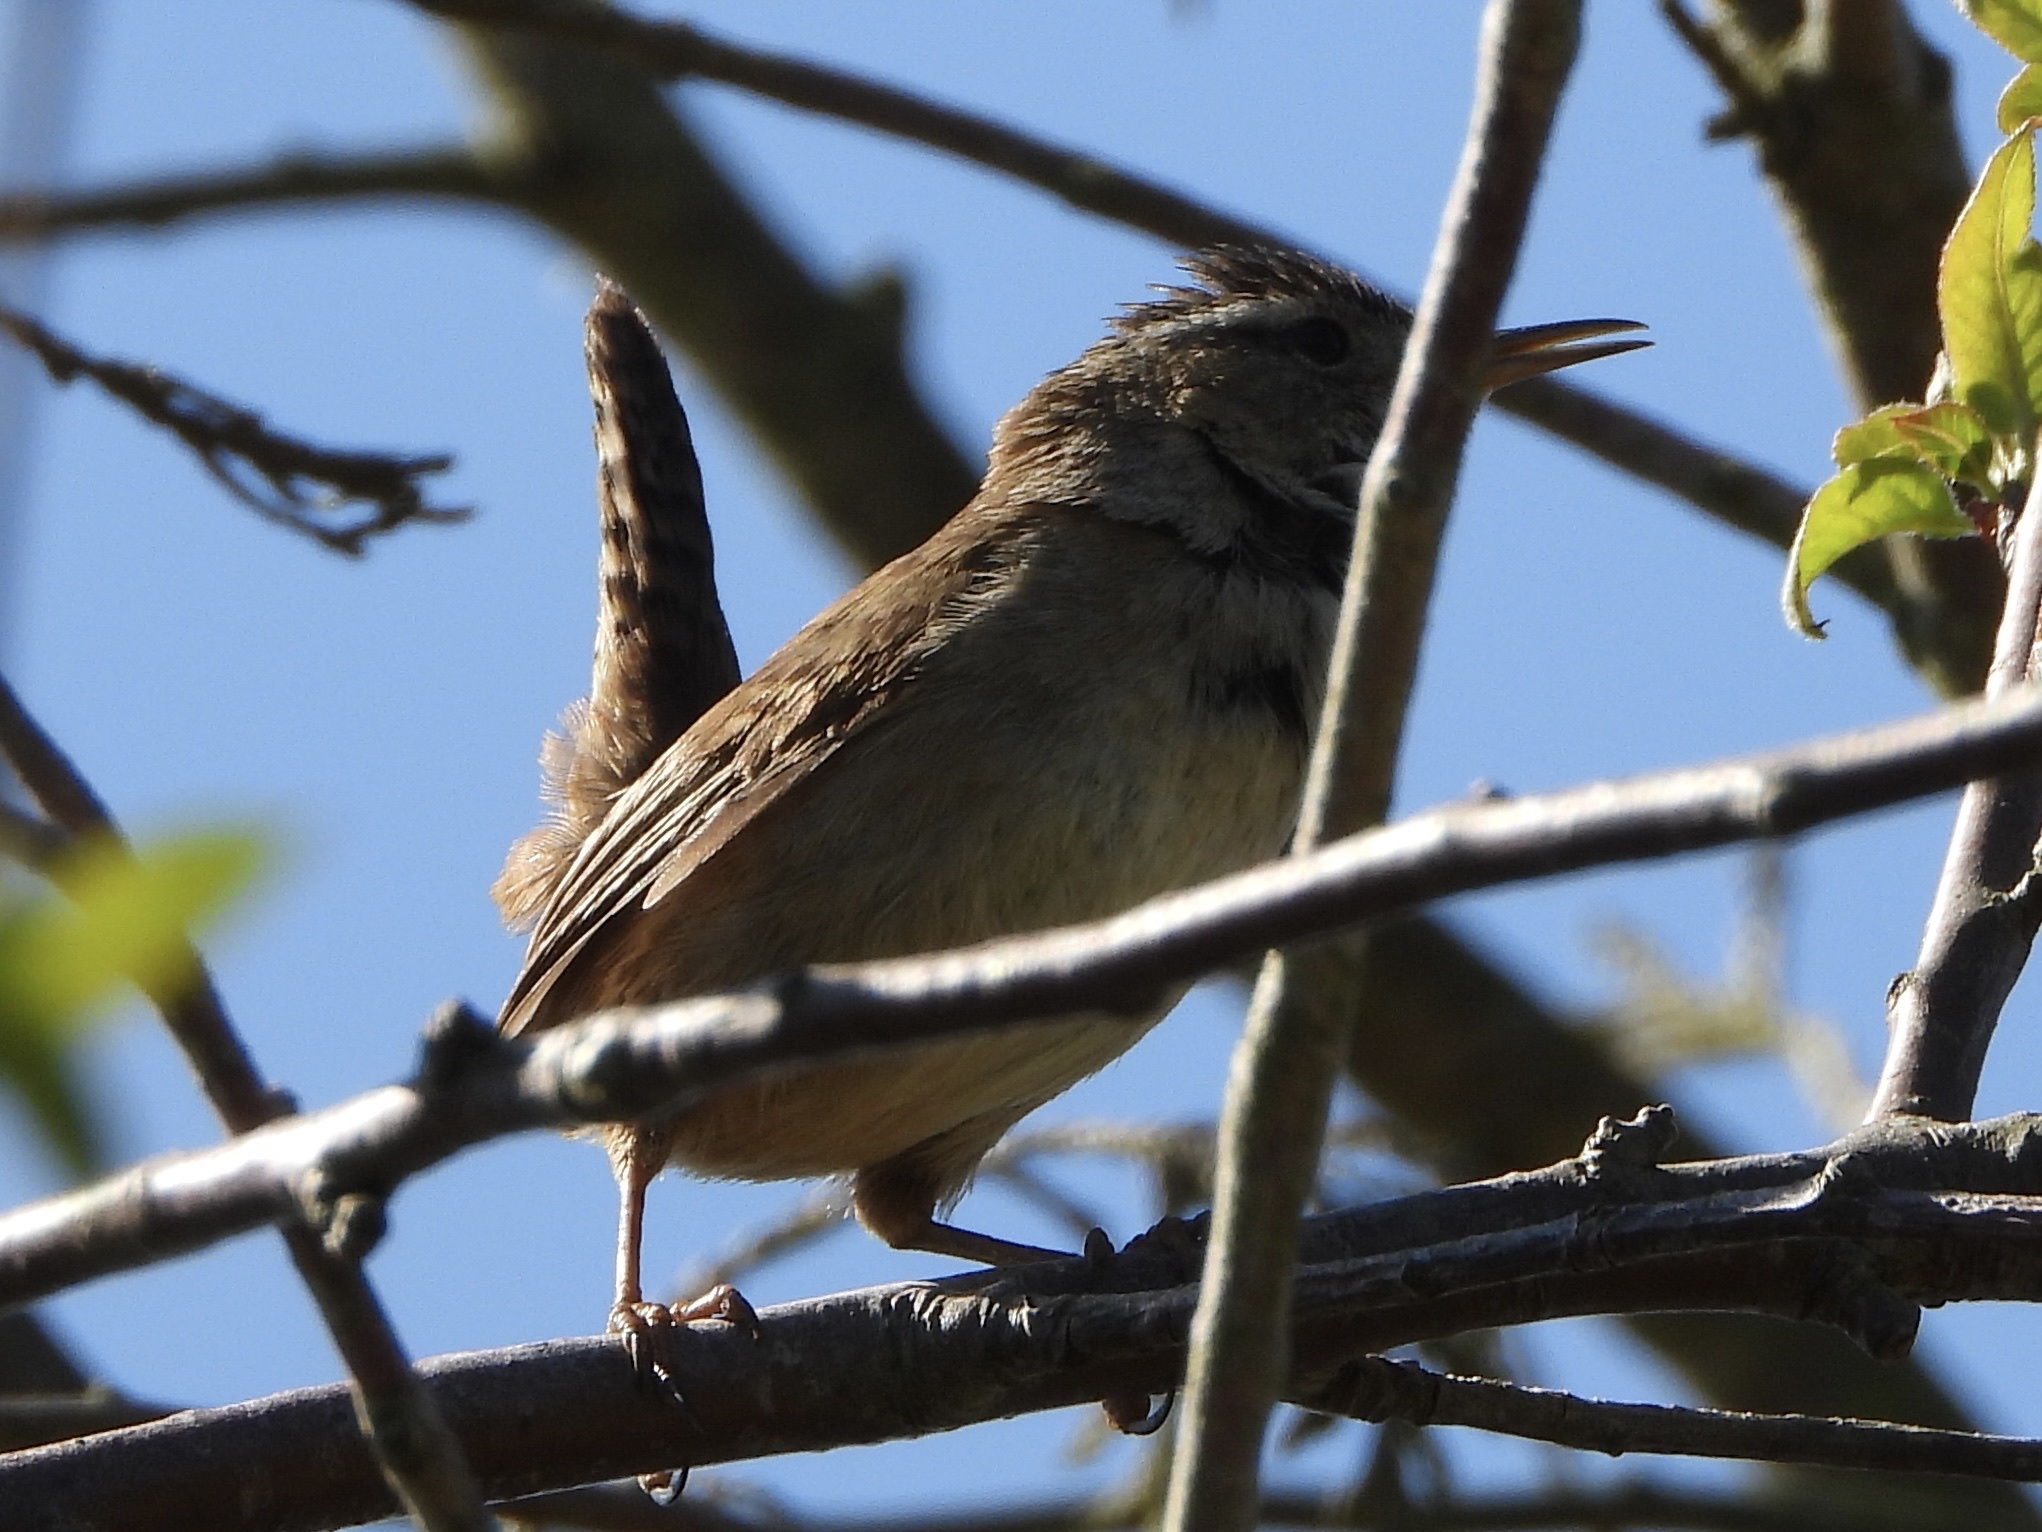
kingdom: Animalia
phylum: Chordata
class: Aves
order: Passeriformes
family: Troglodytidae
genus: Cistothorus
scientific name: Cistothorus palustris
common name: Marsh wren
